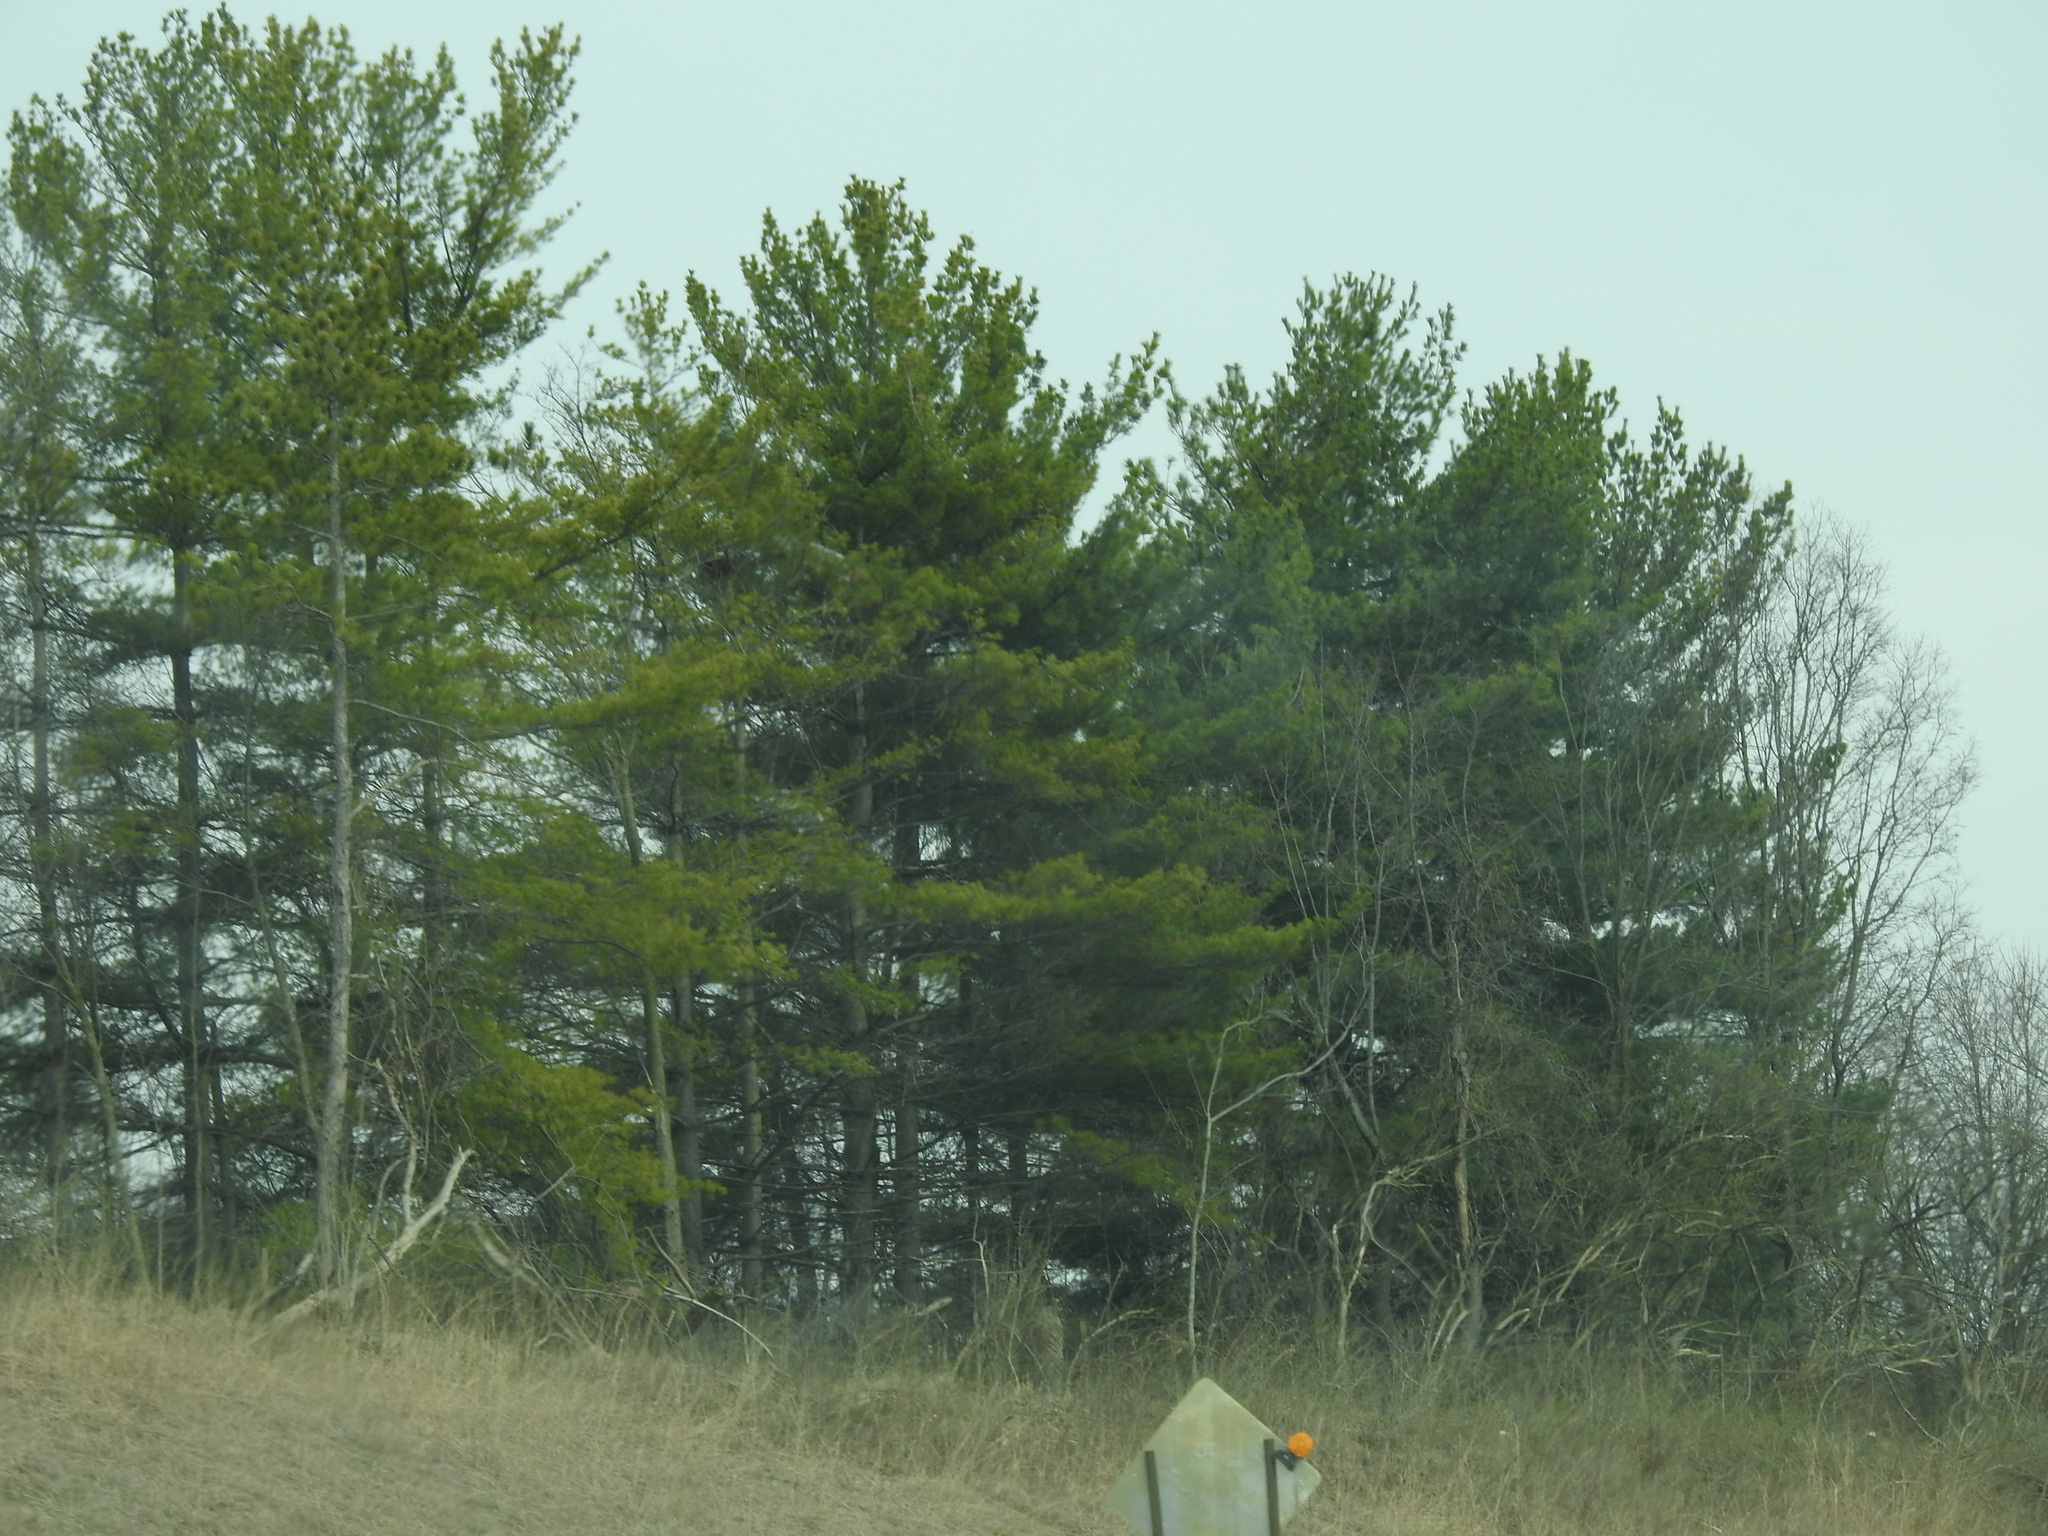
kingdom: Plantae
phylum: Tracheophyta
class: Pinopsida
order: Pinales
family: Pinaceae
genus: Pinus
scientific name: Pinus strobus
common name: Weymouth pine
